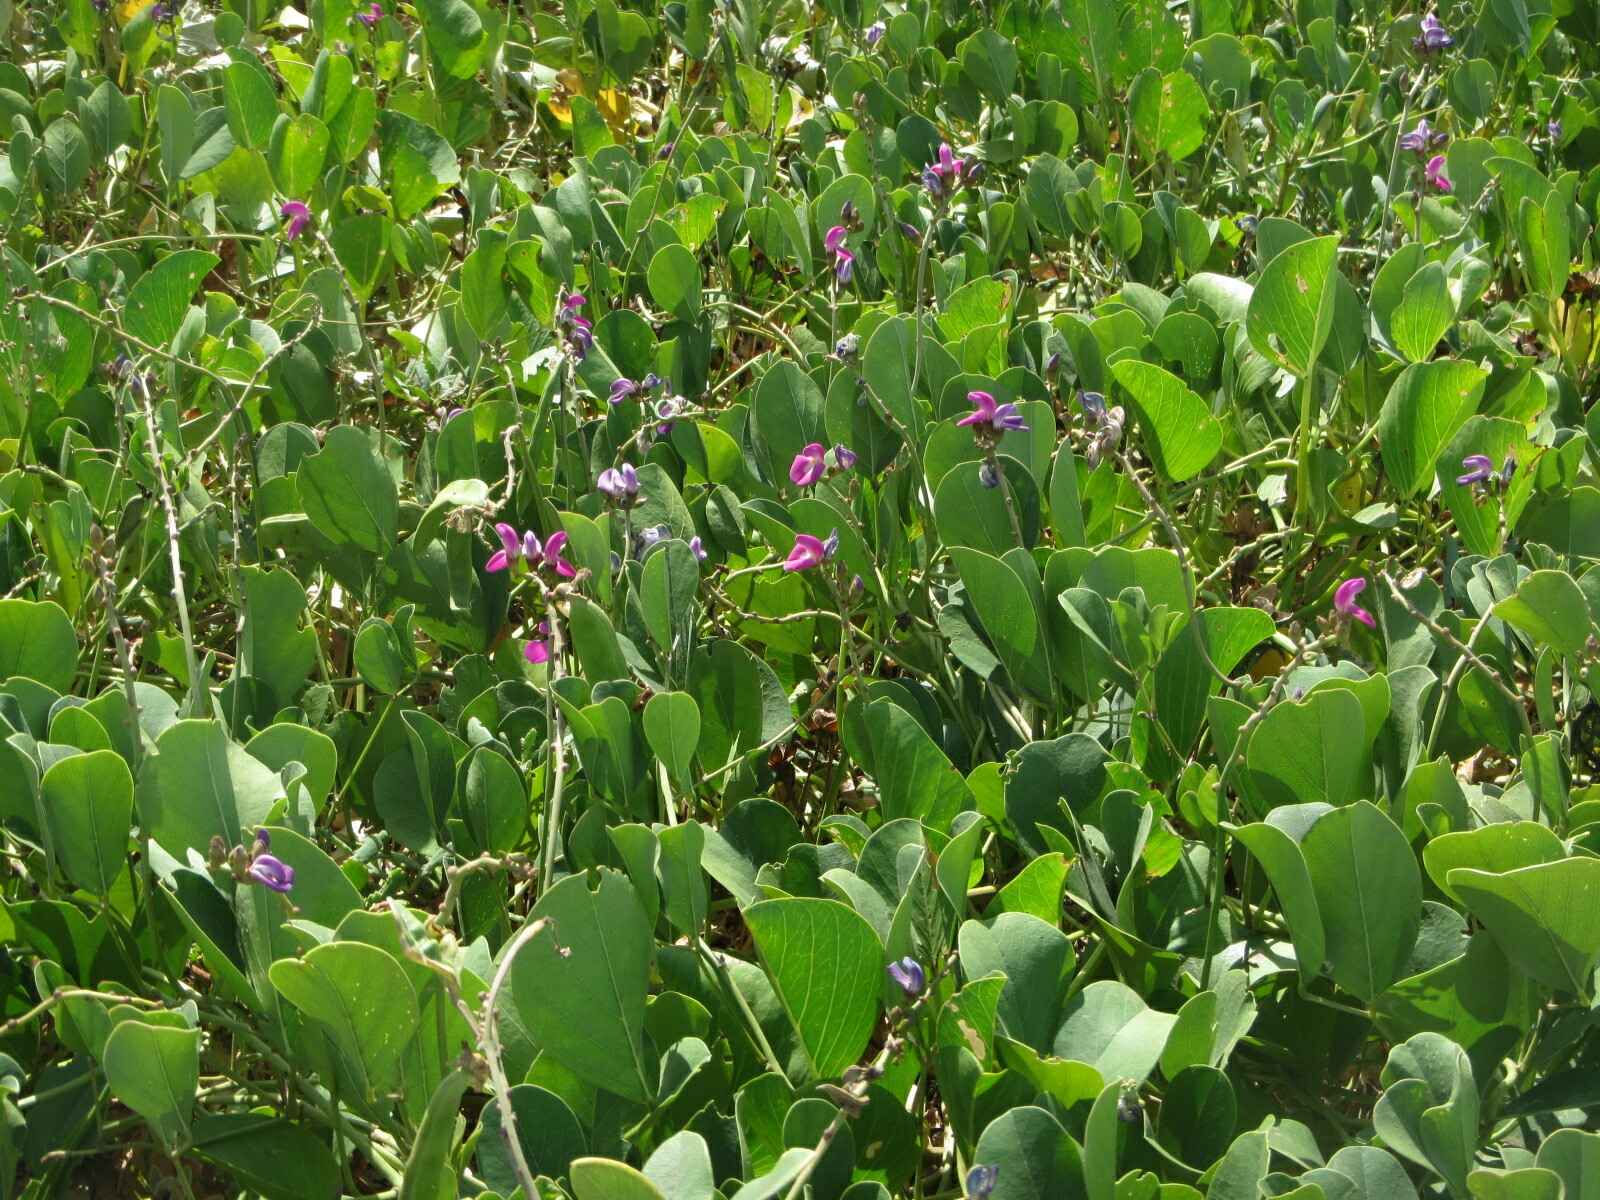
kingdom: Plantae
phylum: Tracheophyta
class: Magnoliopsida
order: Fabales
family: Fabaceae
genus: Canavalia
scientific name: Canavalia rosea
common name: Beach-bean
